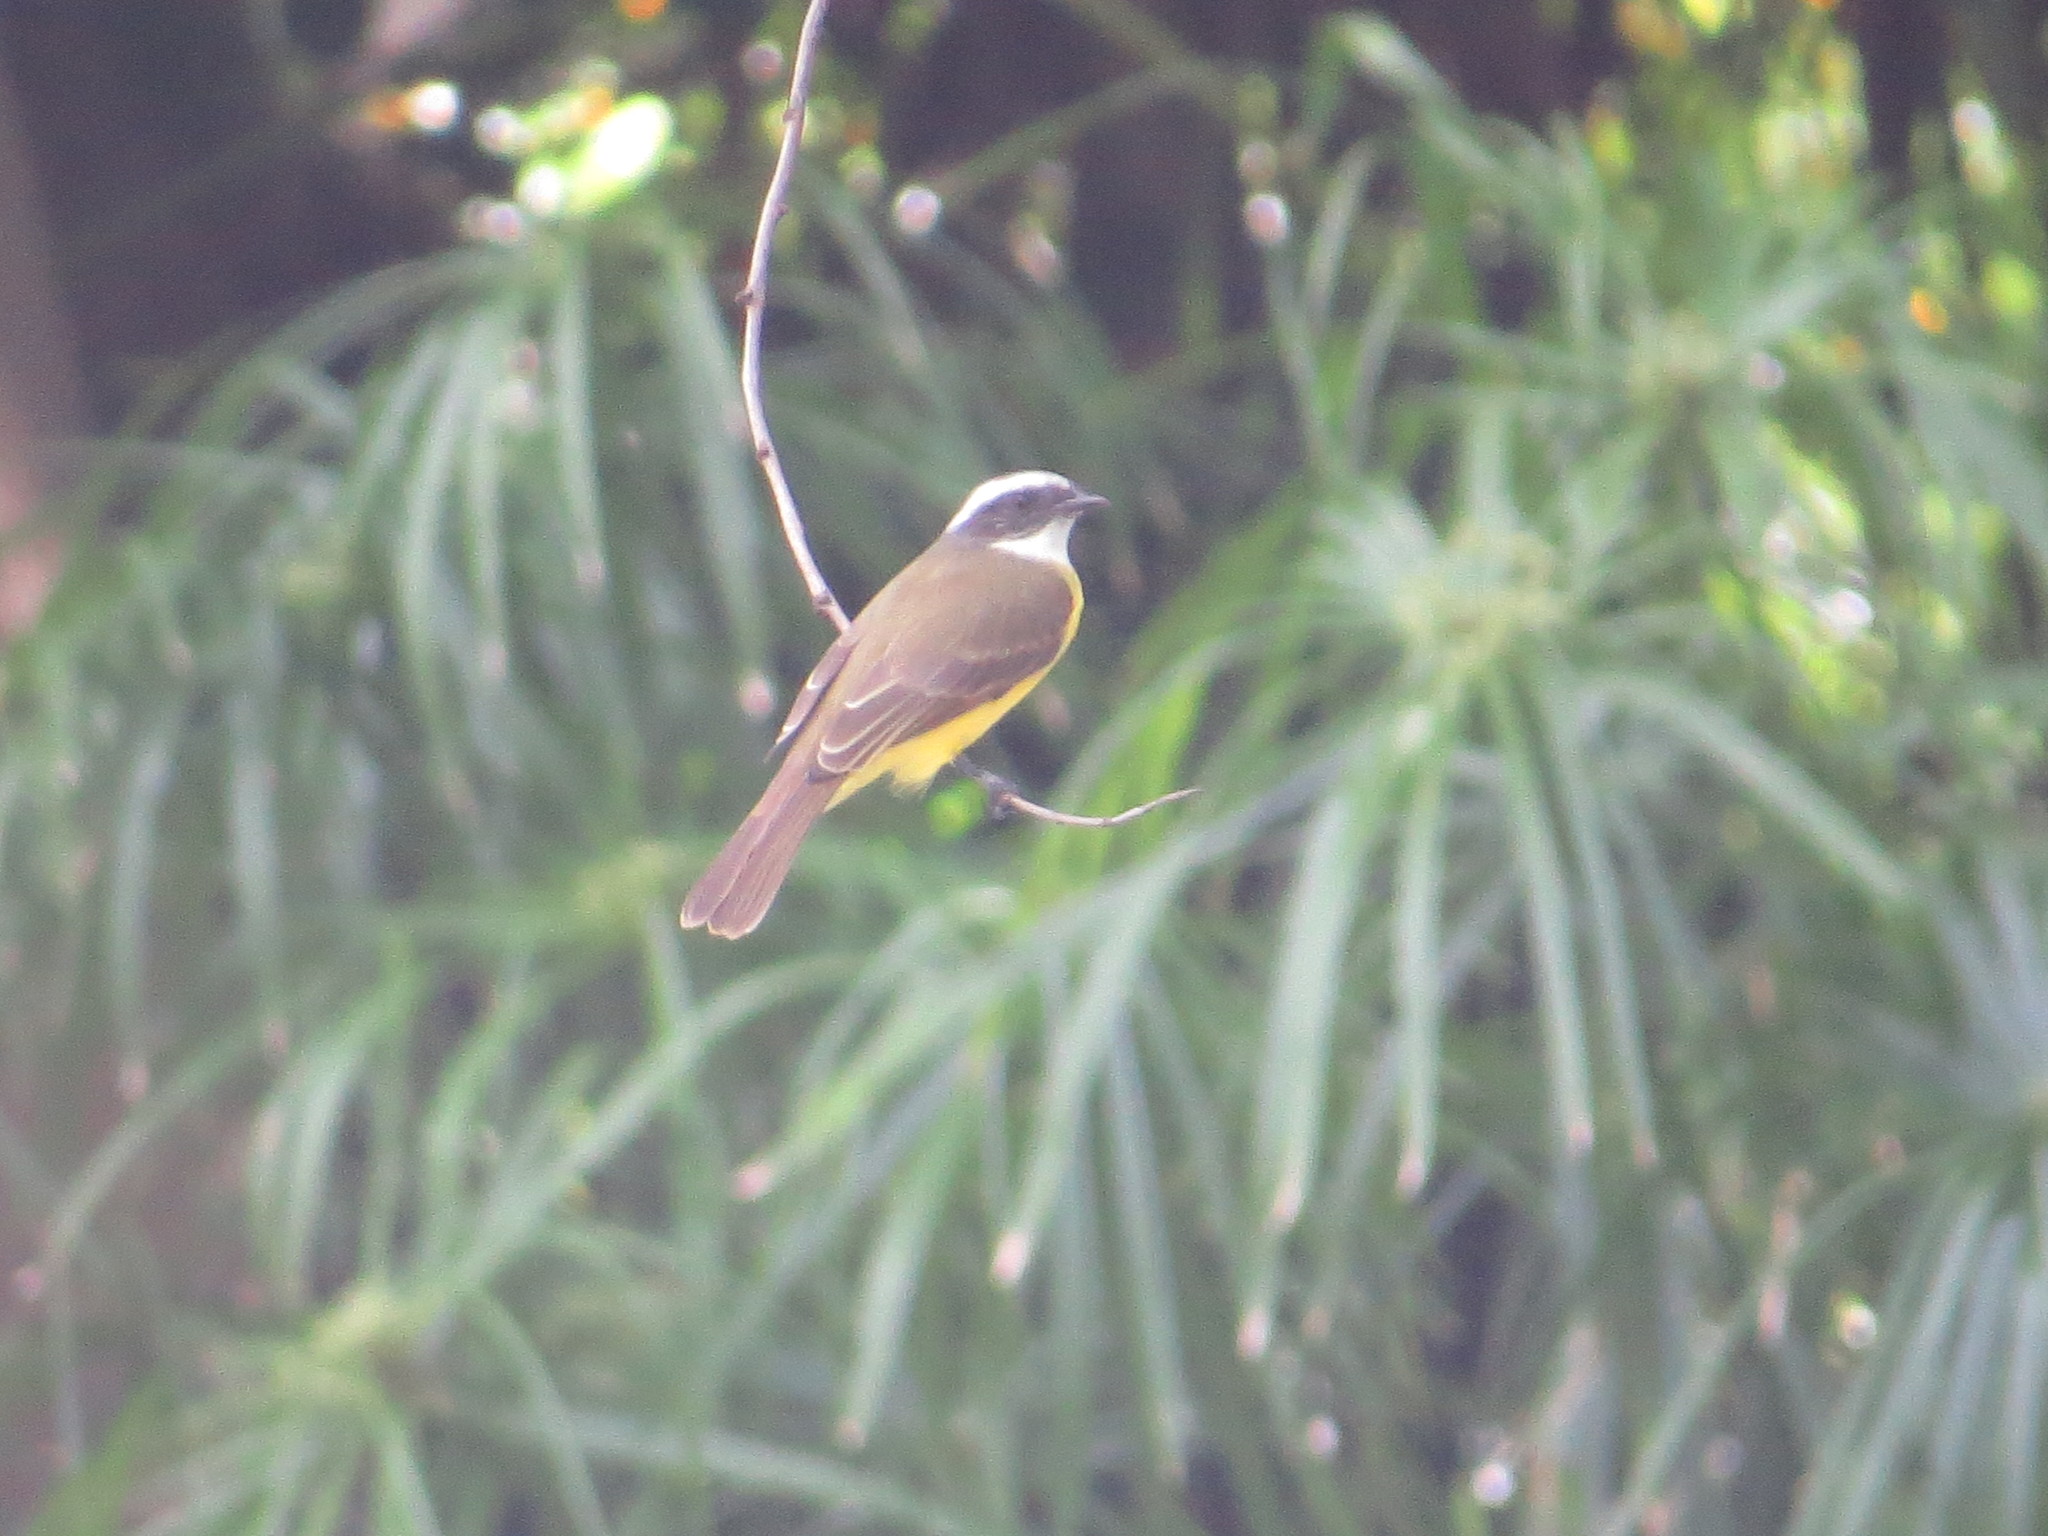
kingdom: Animalia
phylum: Chordata
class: Aves
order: Passeriformes
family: Tyrannidae
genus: Myiozetetes
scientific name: Myiozetetes similis
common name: Social flycatcher
